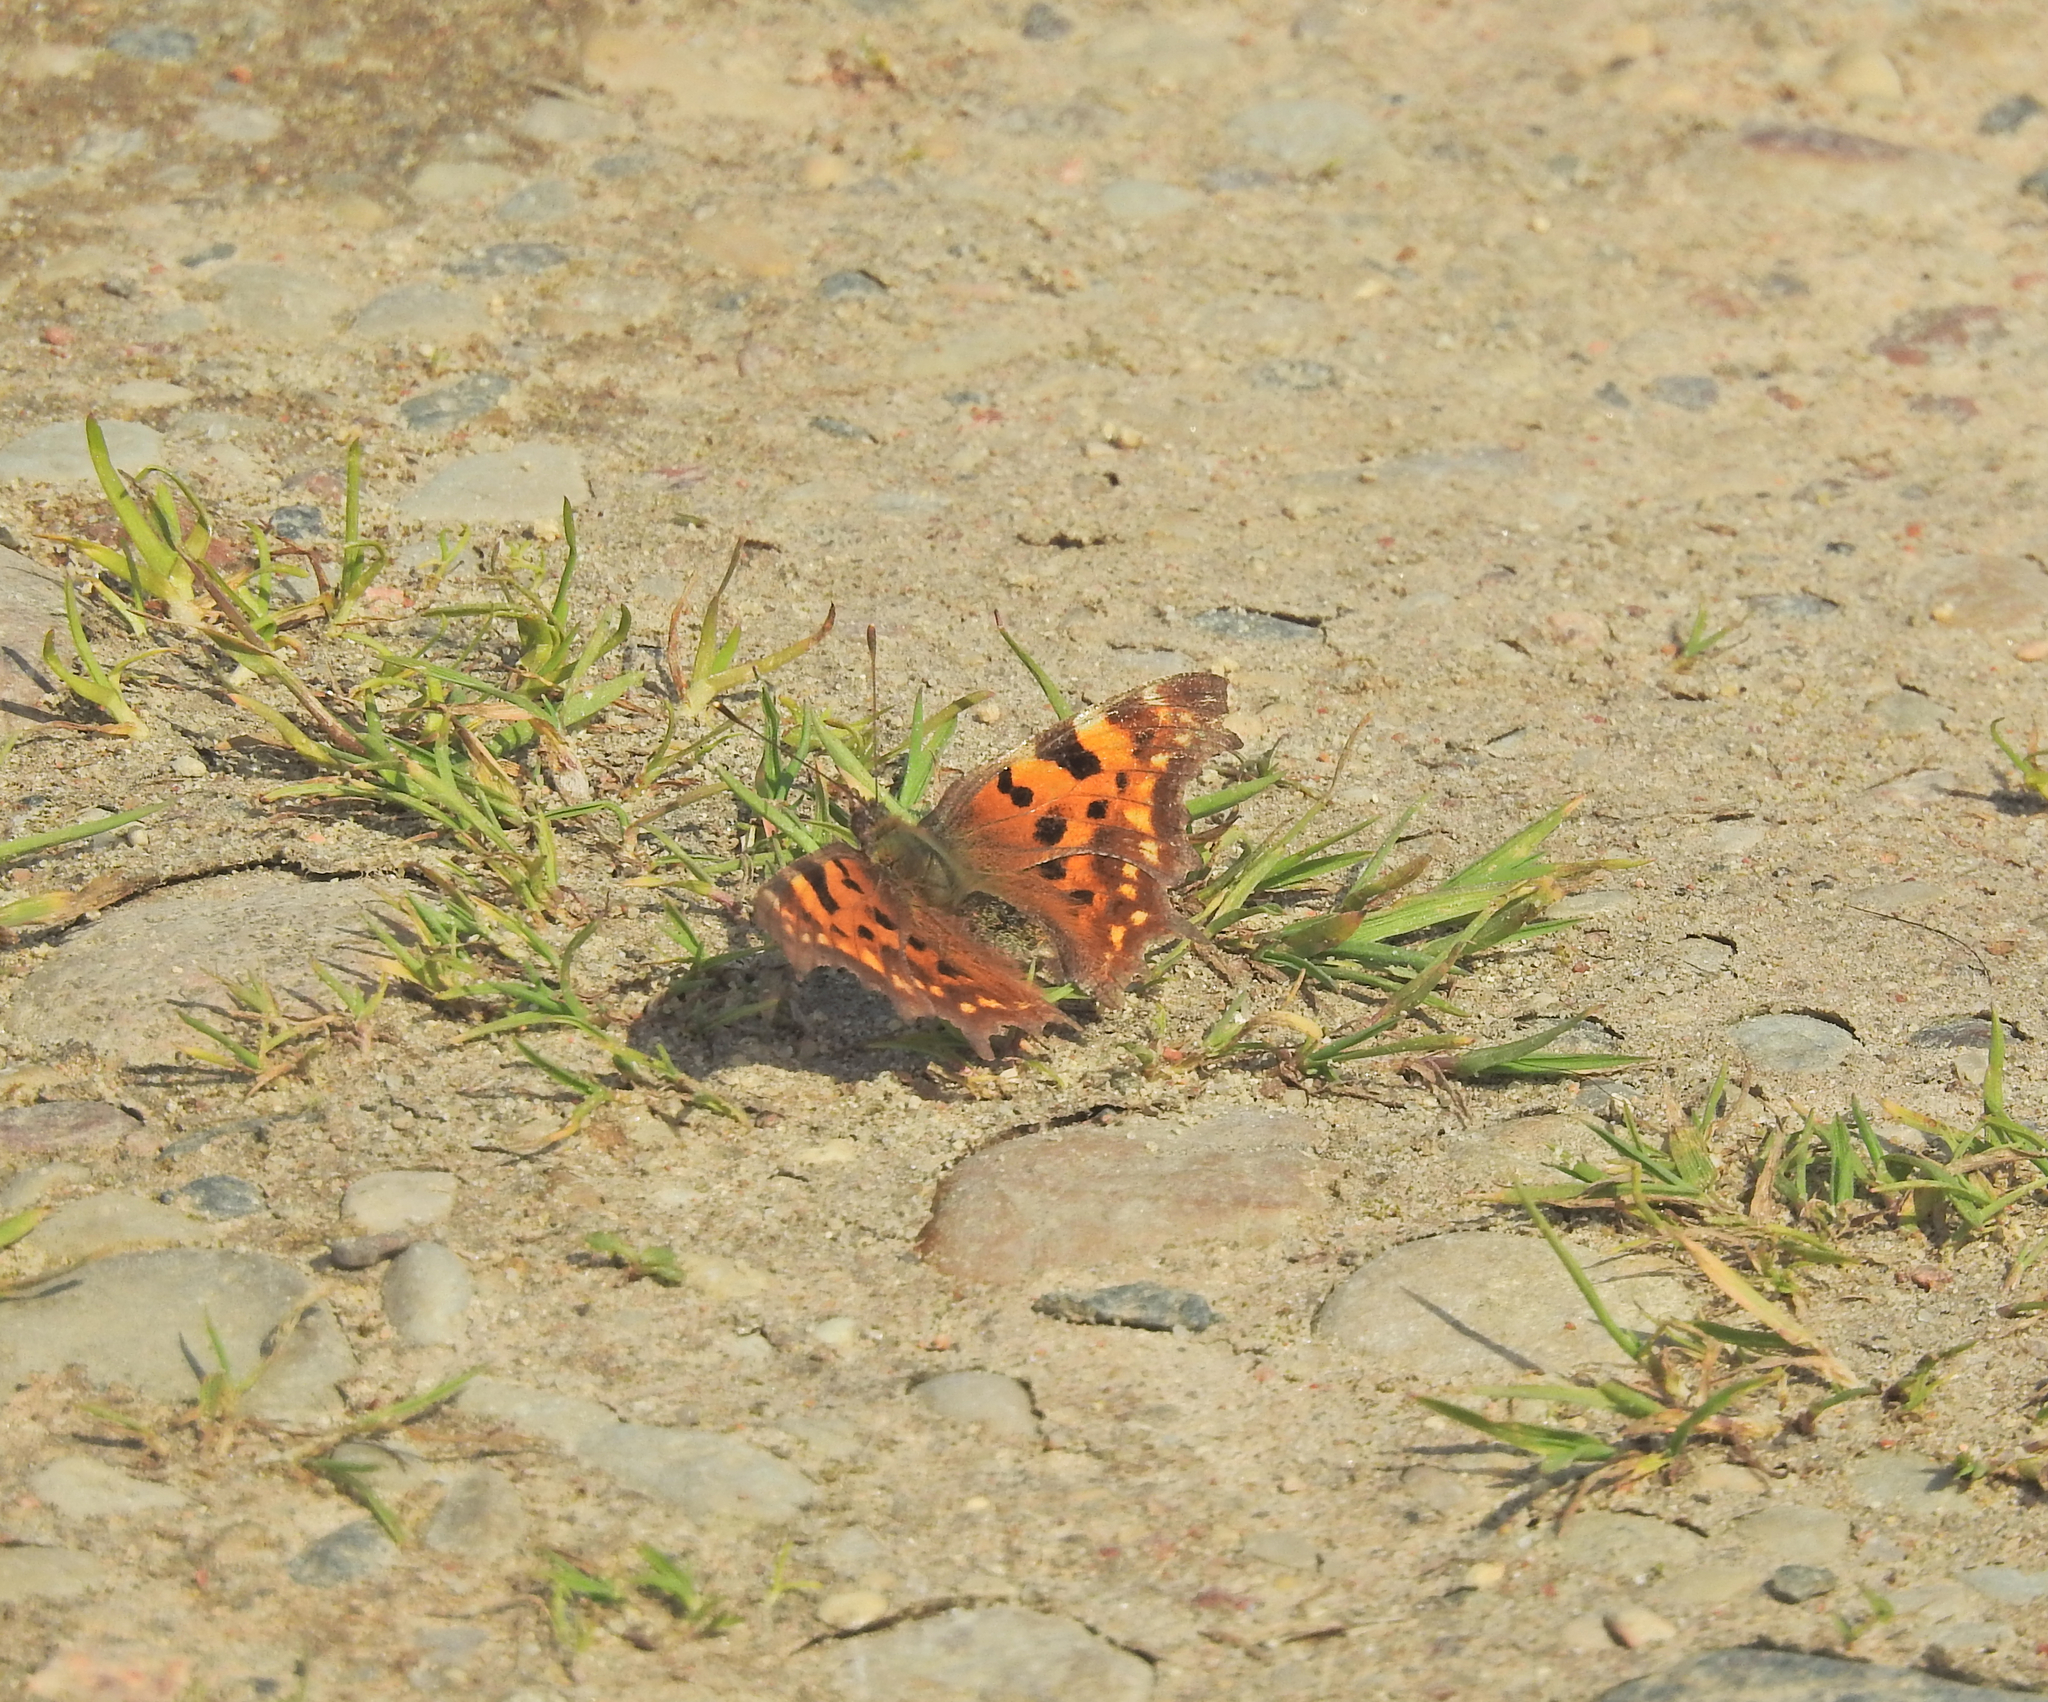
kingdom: Animalia
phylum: Arthropoda
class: Insecta
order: Lepidoptera
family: Nymphalidae
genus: Polygonia
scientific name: Polygonia c-album
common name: Comma
